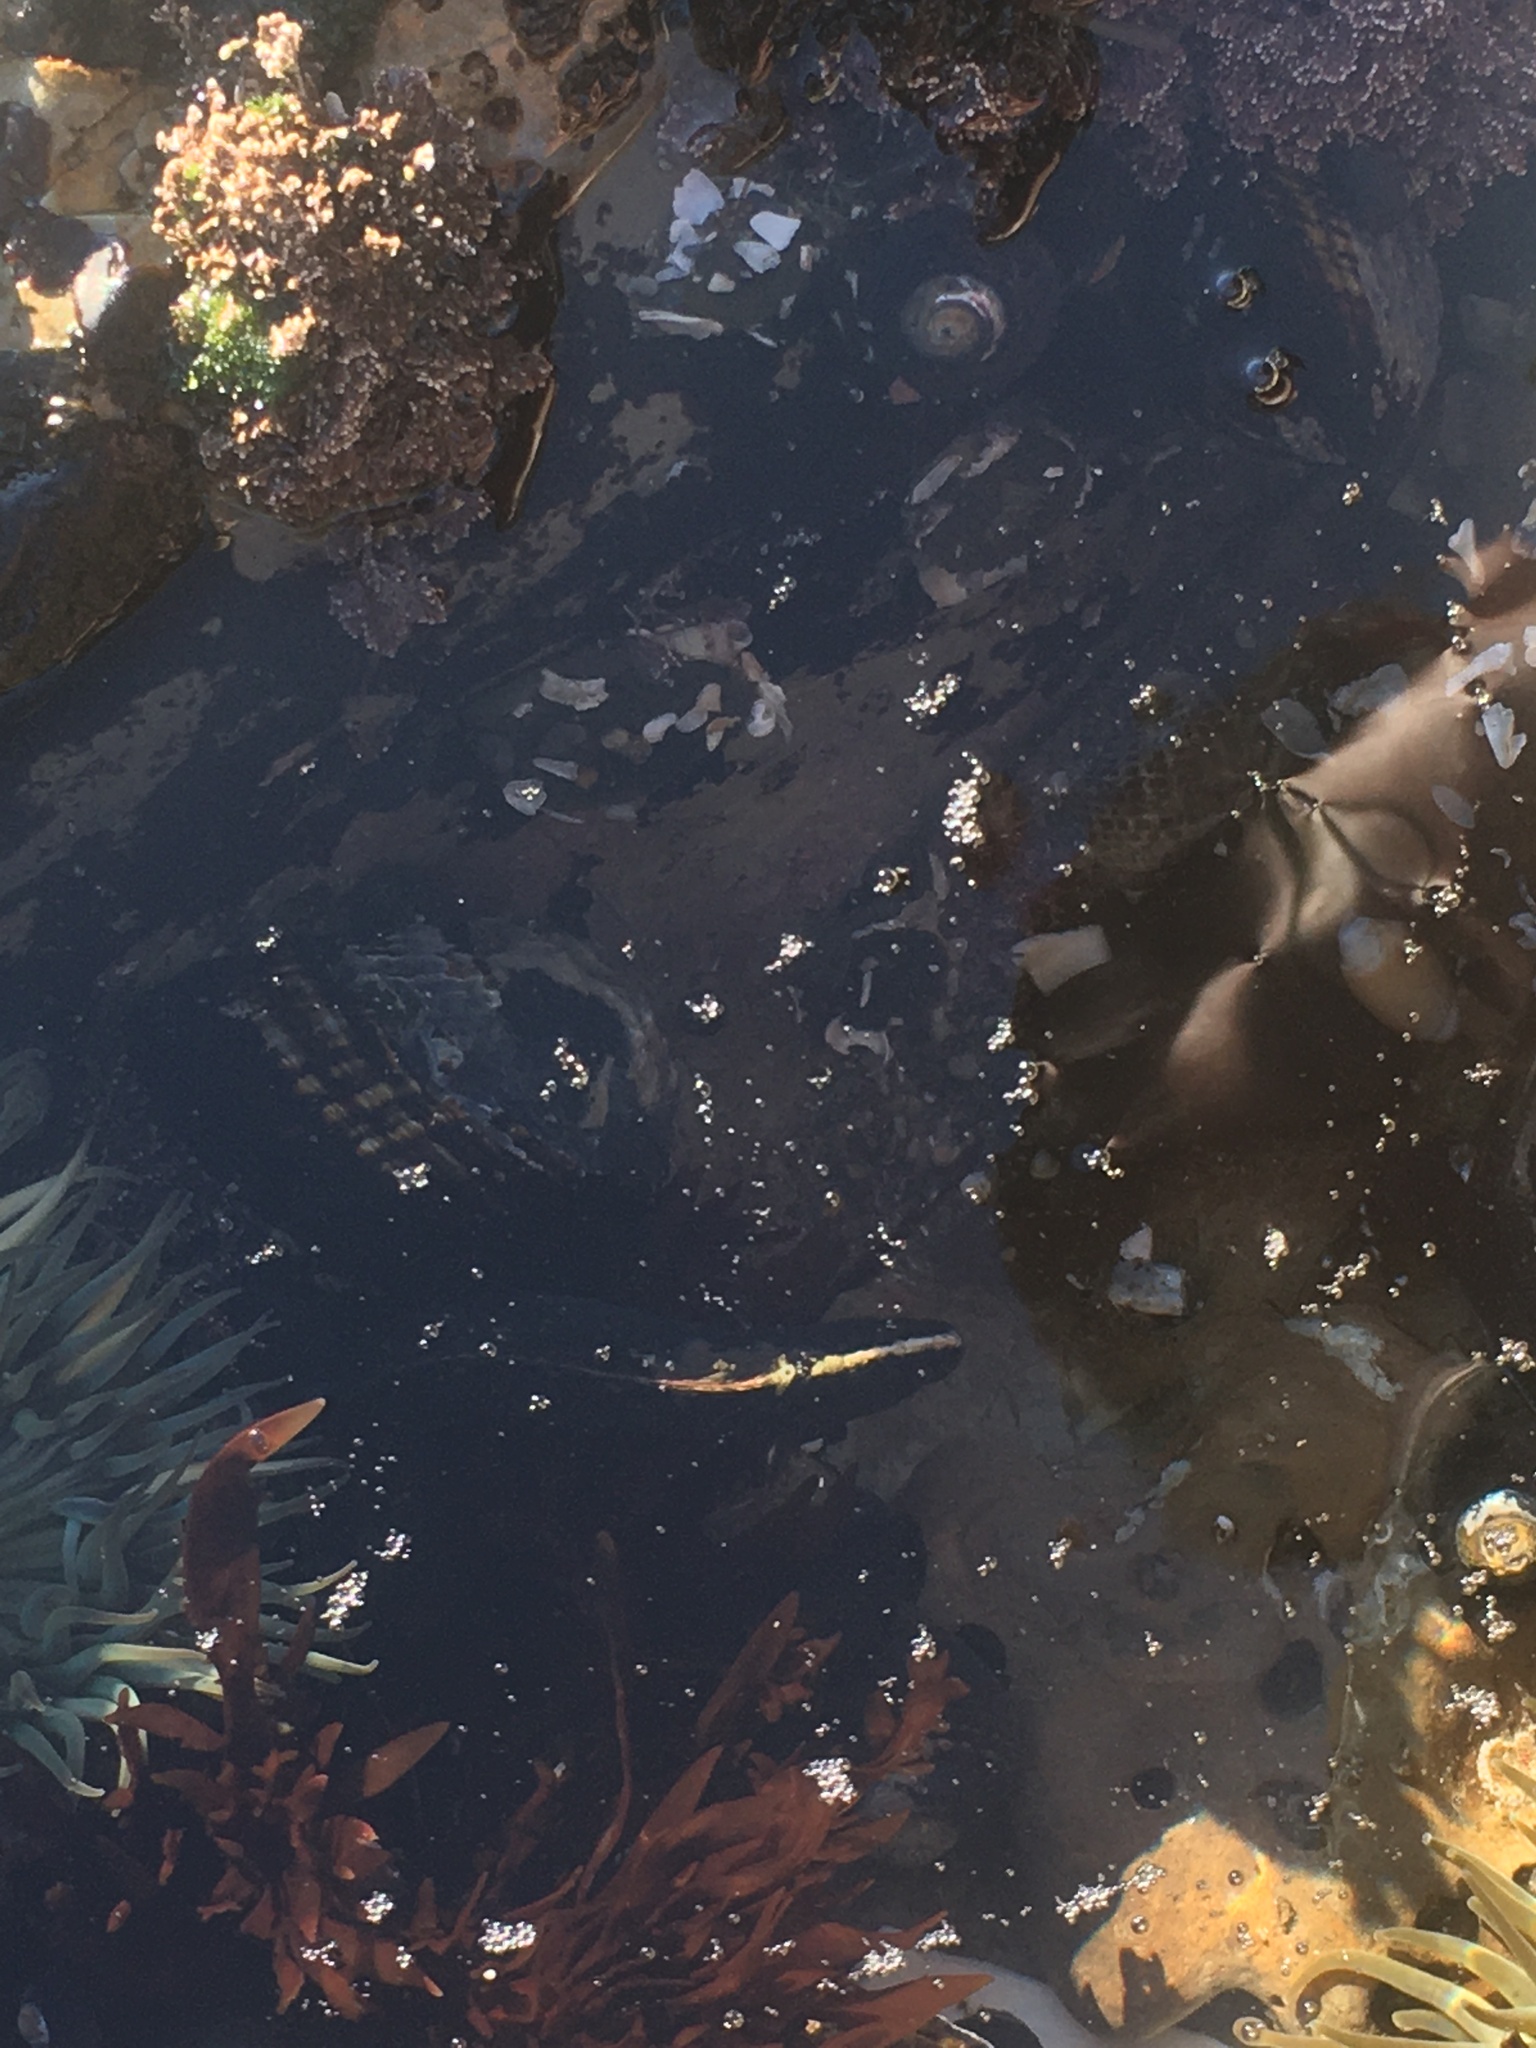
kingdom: Animalia
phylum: Chordata
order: Perciformes
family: Stichaeidae
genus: Cebidichthys
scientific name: Cebidichthys violaceus
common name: Monkeyface prickleback
